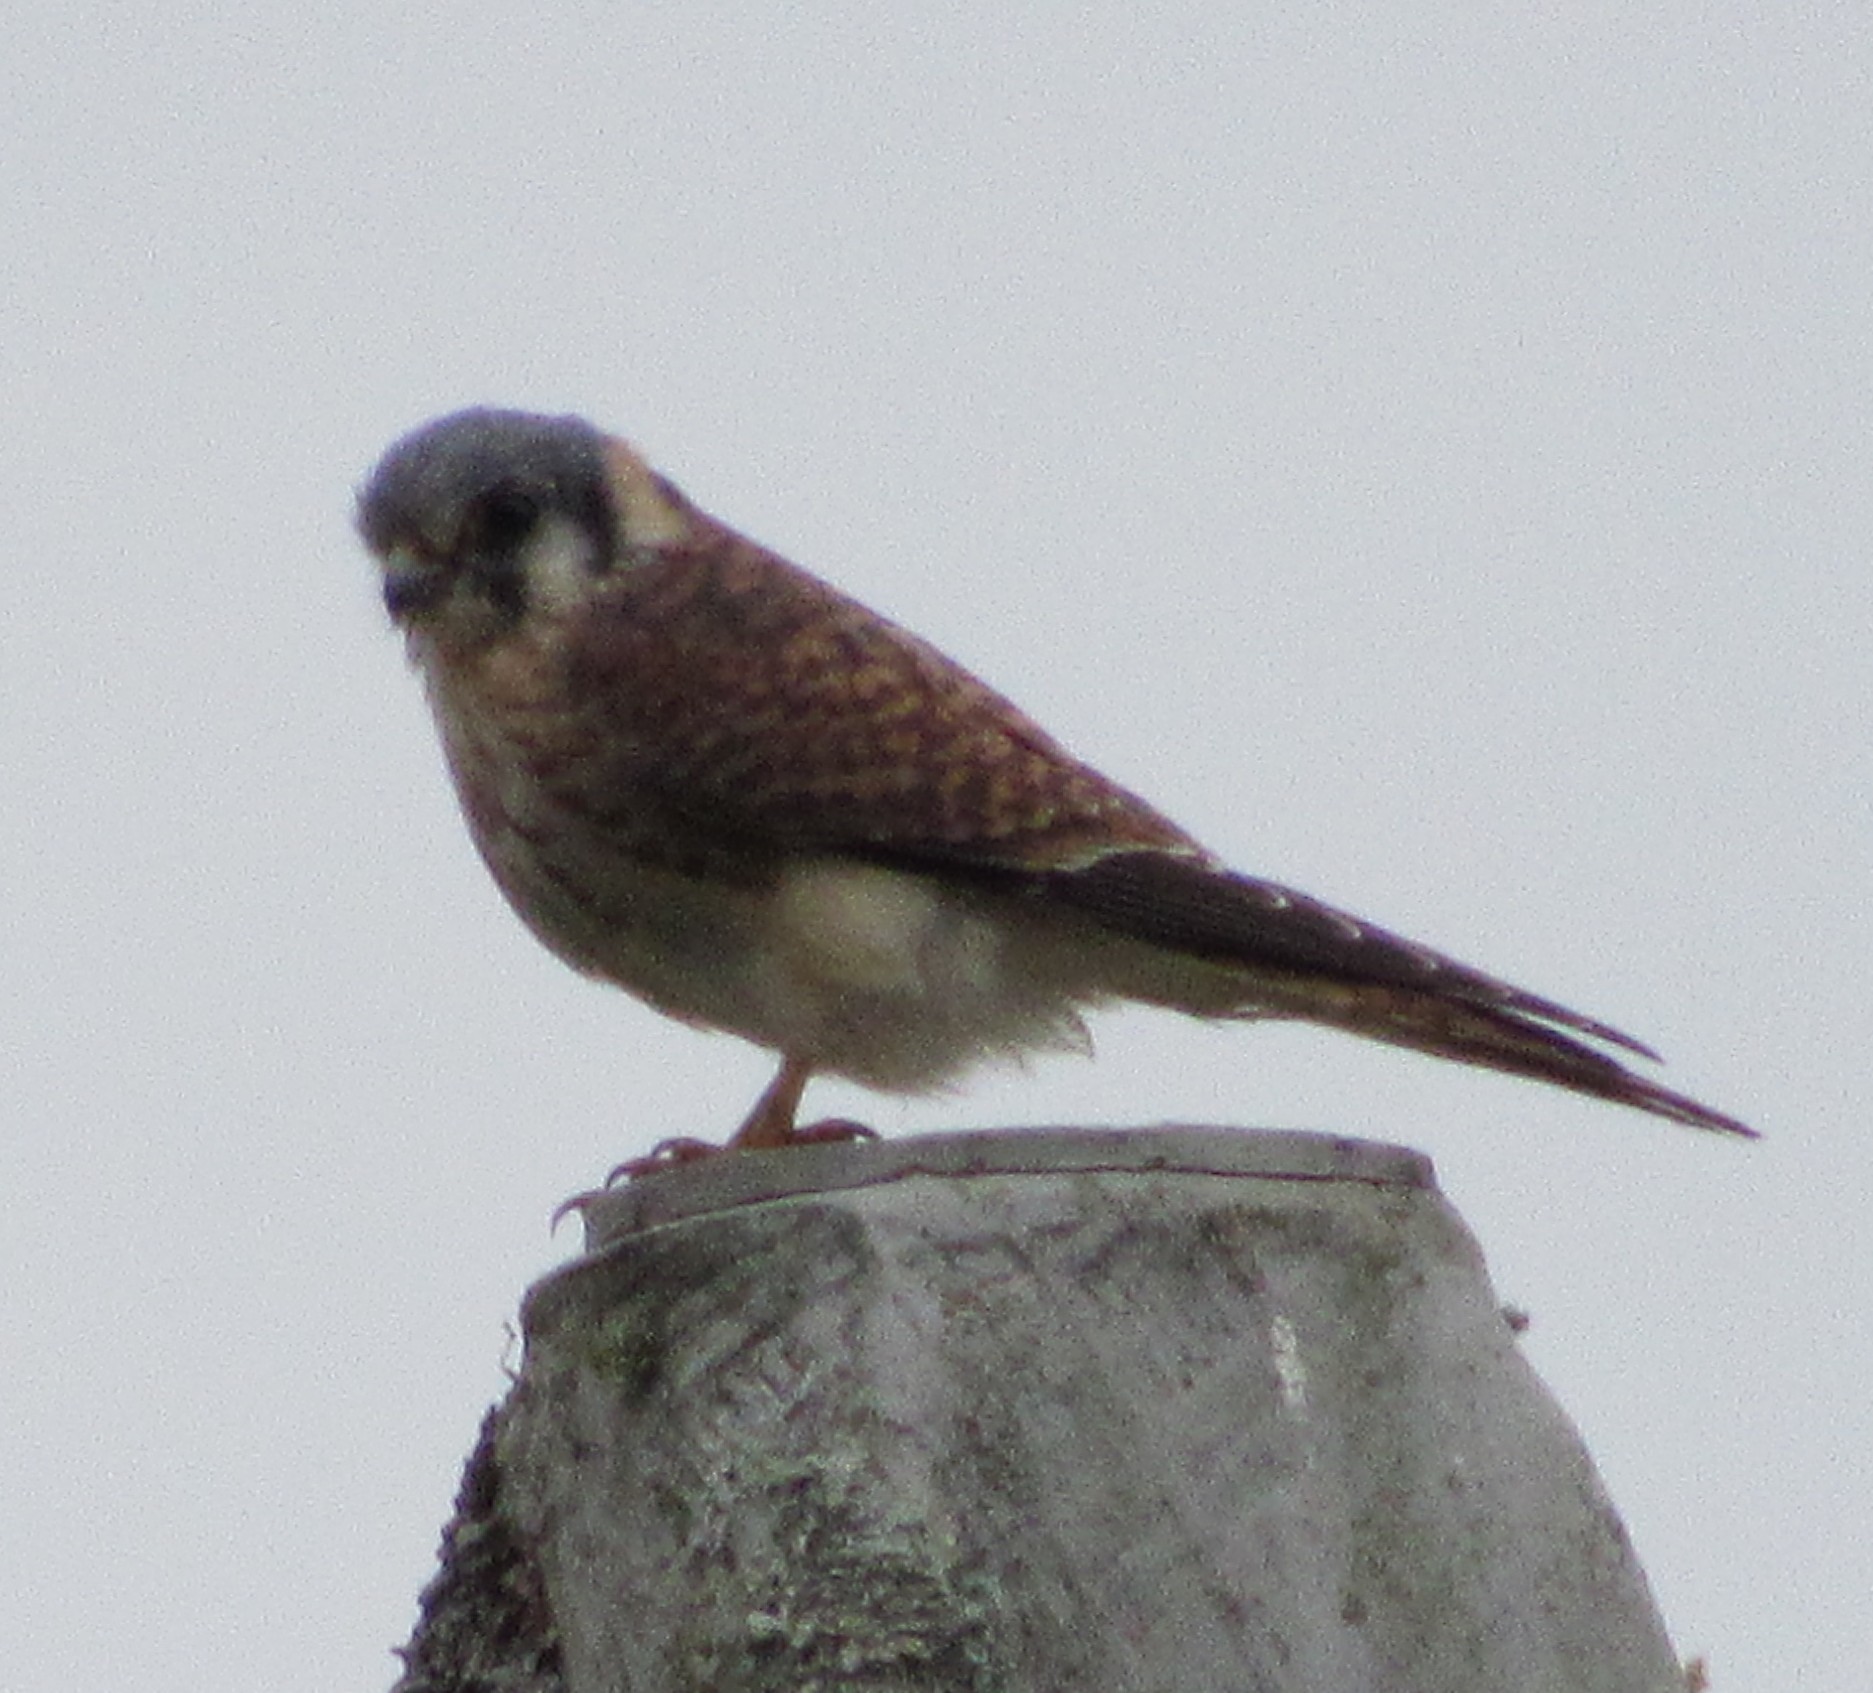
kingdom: Animalia
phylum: Chordata
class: Aves
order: Falconiformes
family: Falconidae
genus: Falco
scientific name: Falco sparverius
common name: American kestrel
